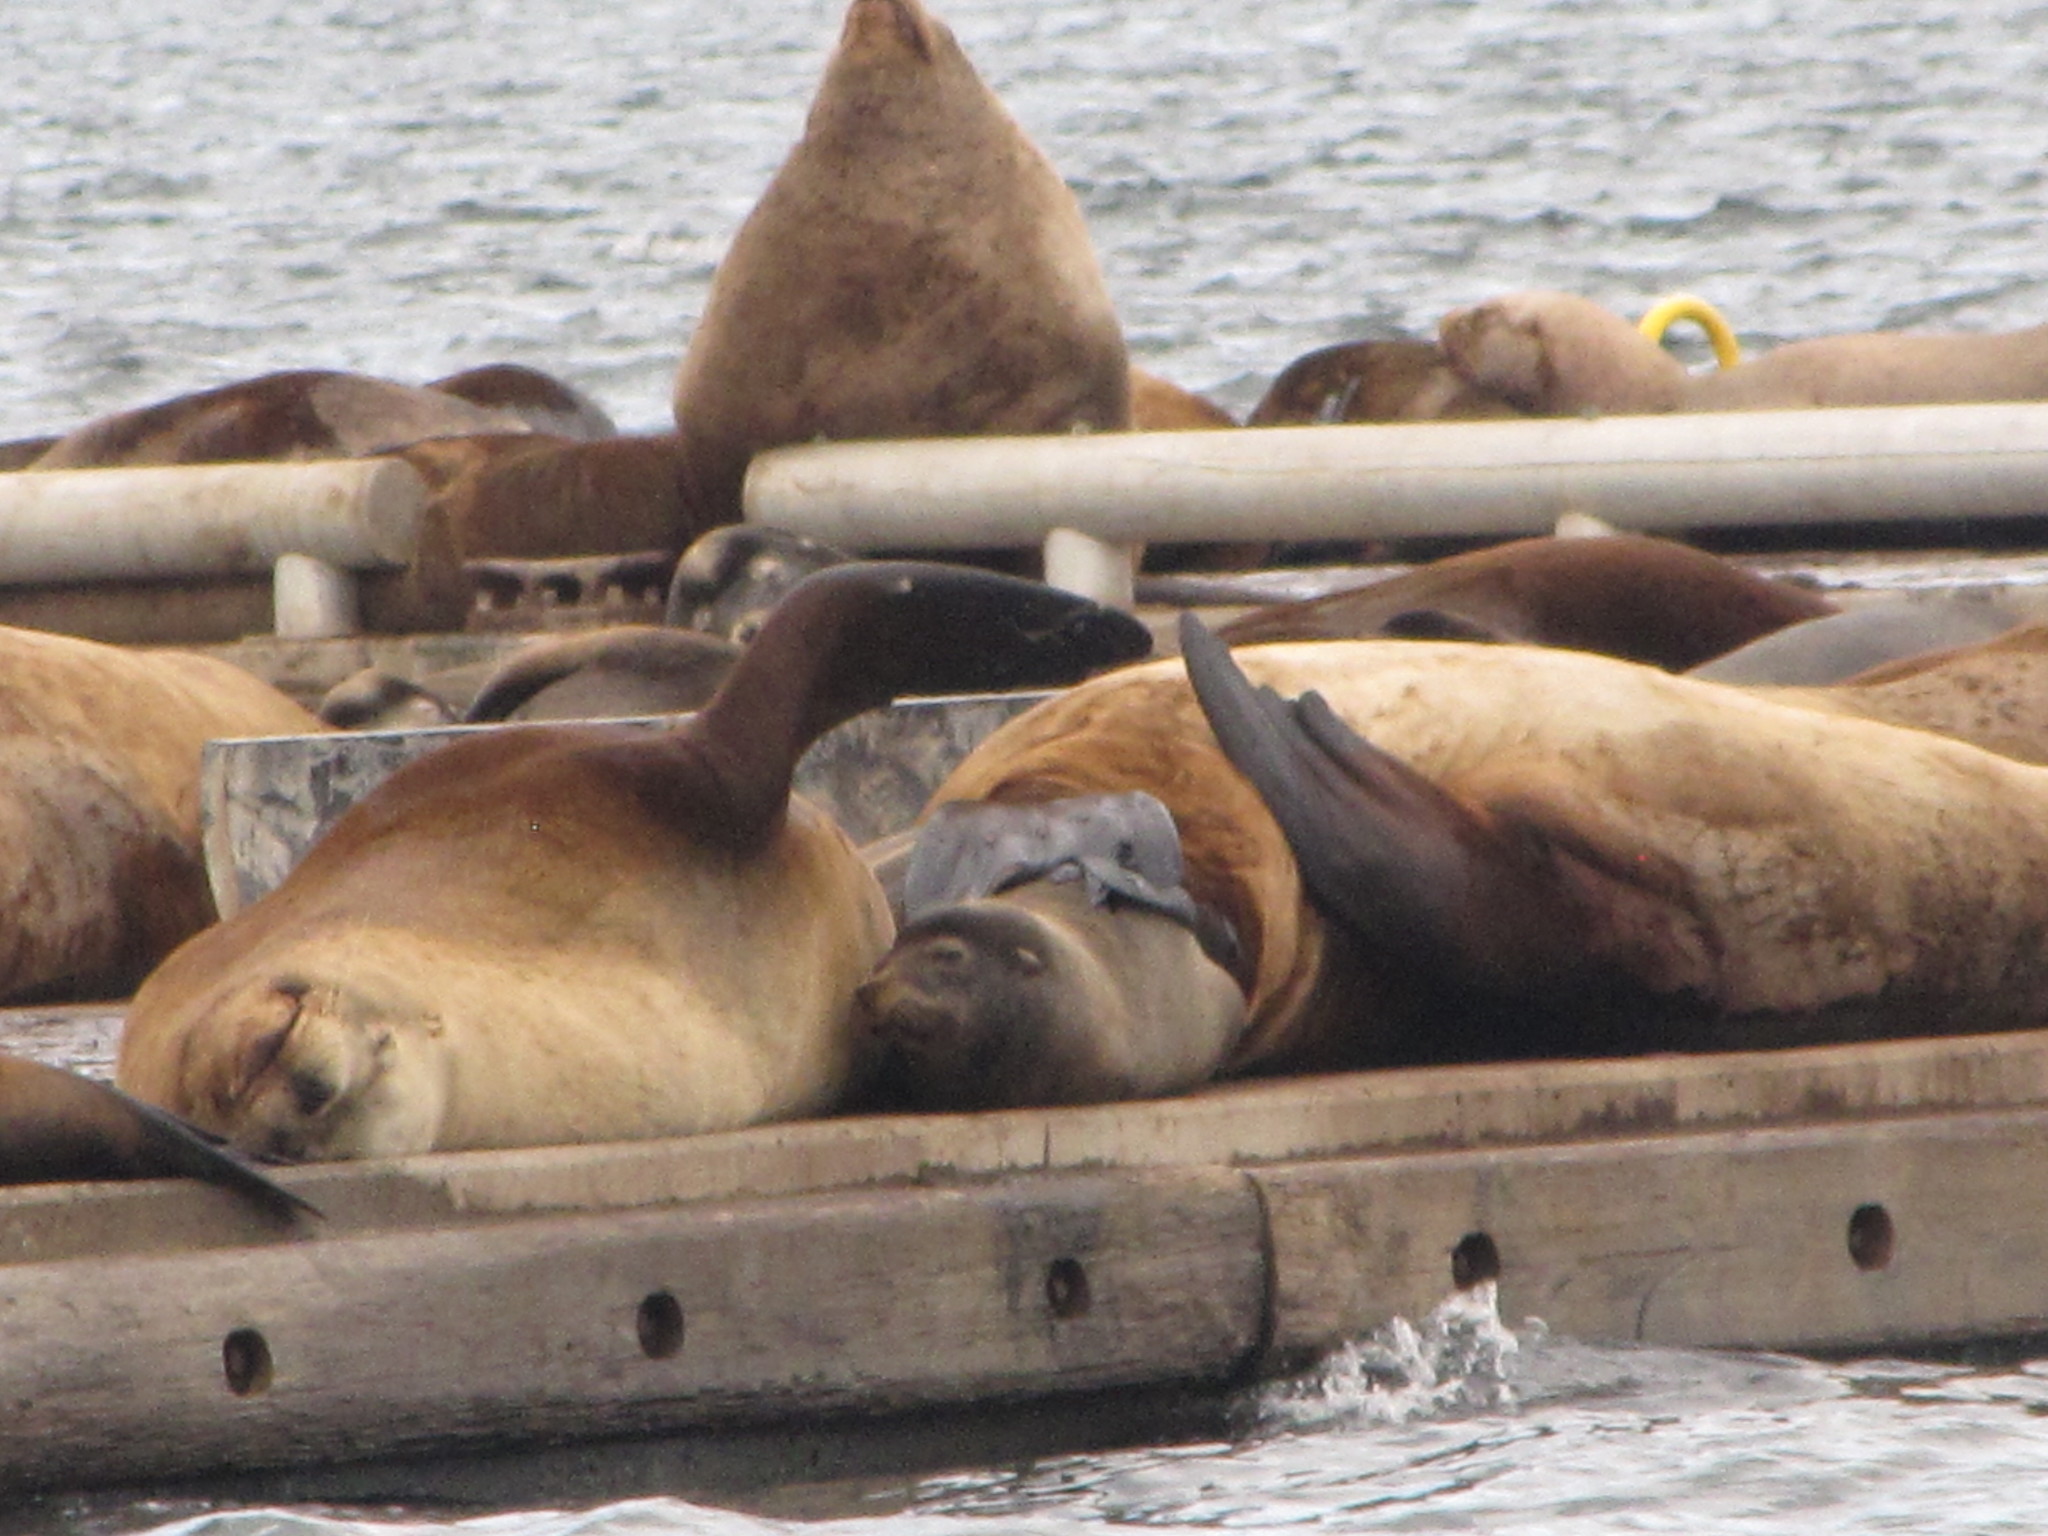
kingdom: Animalia
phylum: Chordata
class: Mammalia
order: Carnivora
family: Otariidae
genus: Zalophus
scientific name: Zalophus californianus
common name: California sea lion
